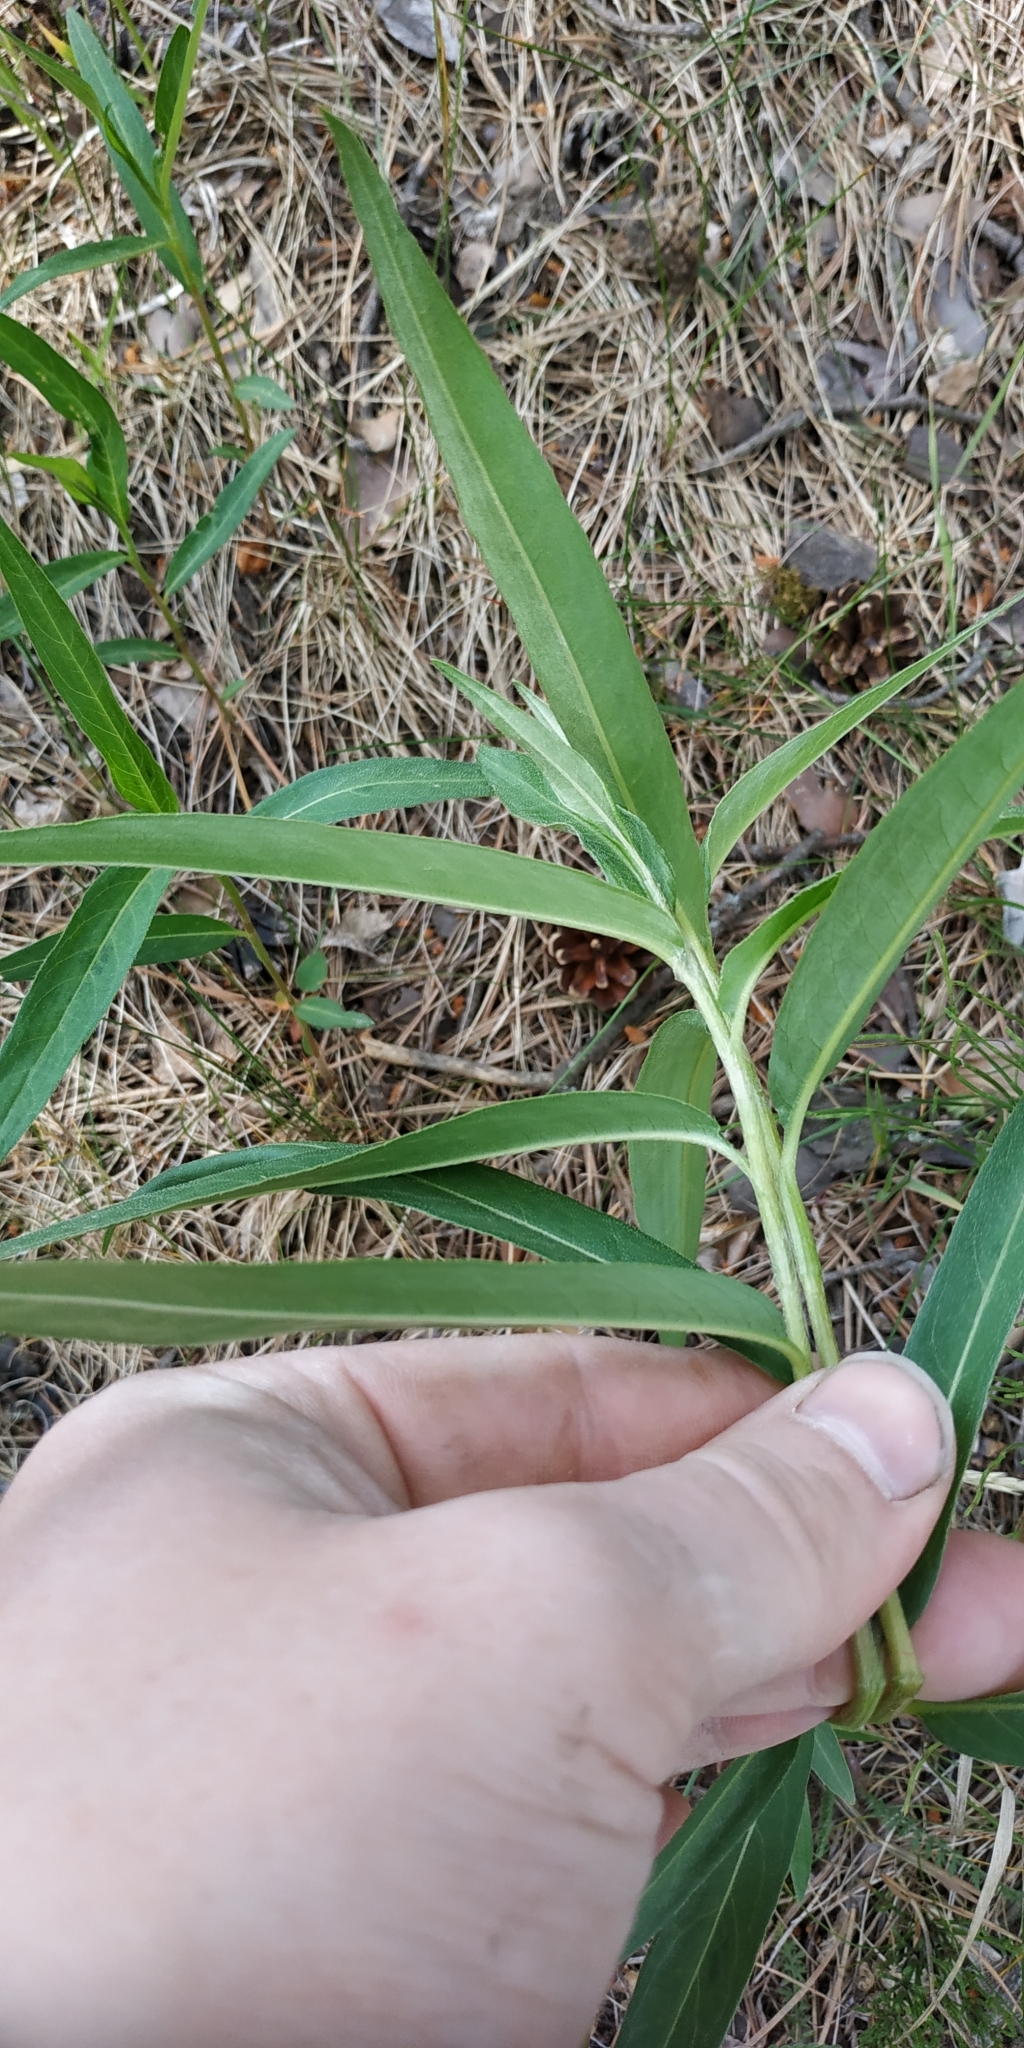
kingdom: Plantae
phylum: Tracheophyta
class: Magnoliopsida
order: Caryophyllales
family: Polygonaceae
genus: Persicaria
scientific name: Persicaria amphibia
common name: Amphibious bistort
